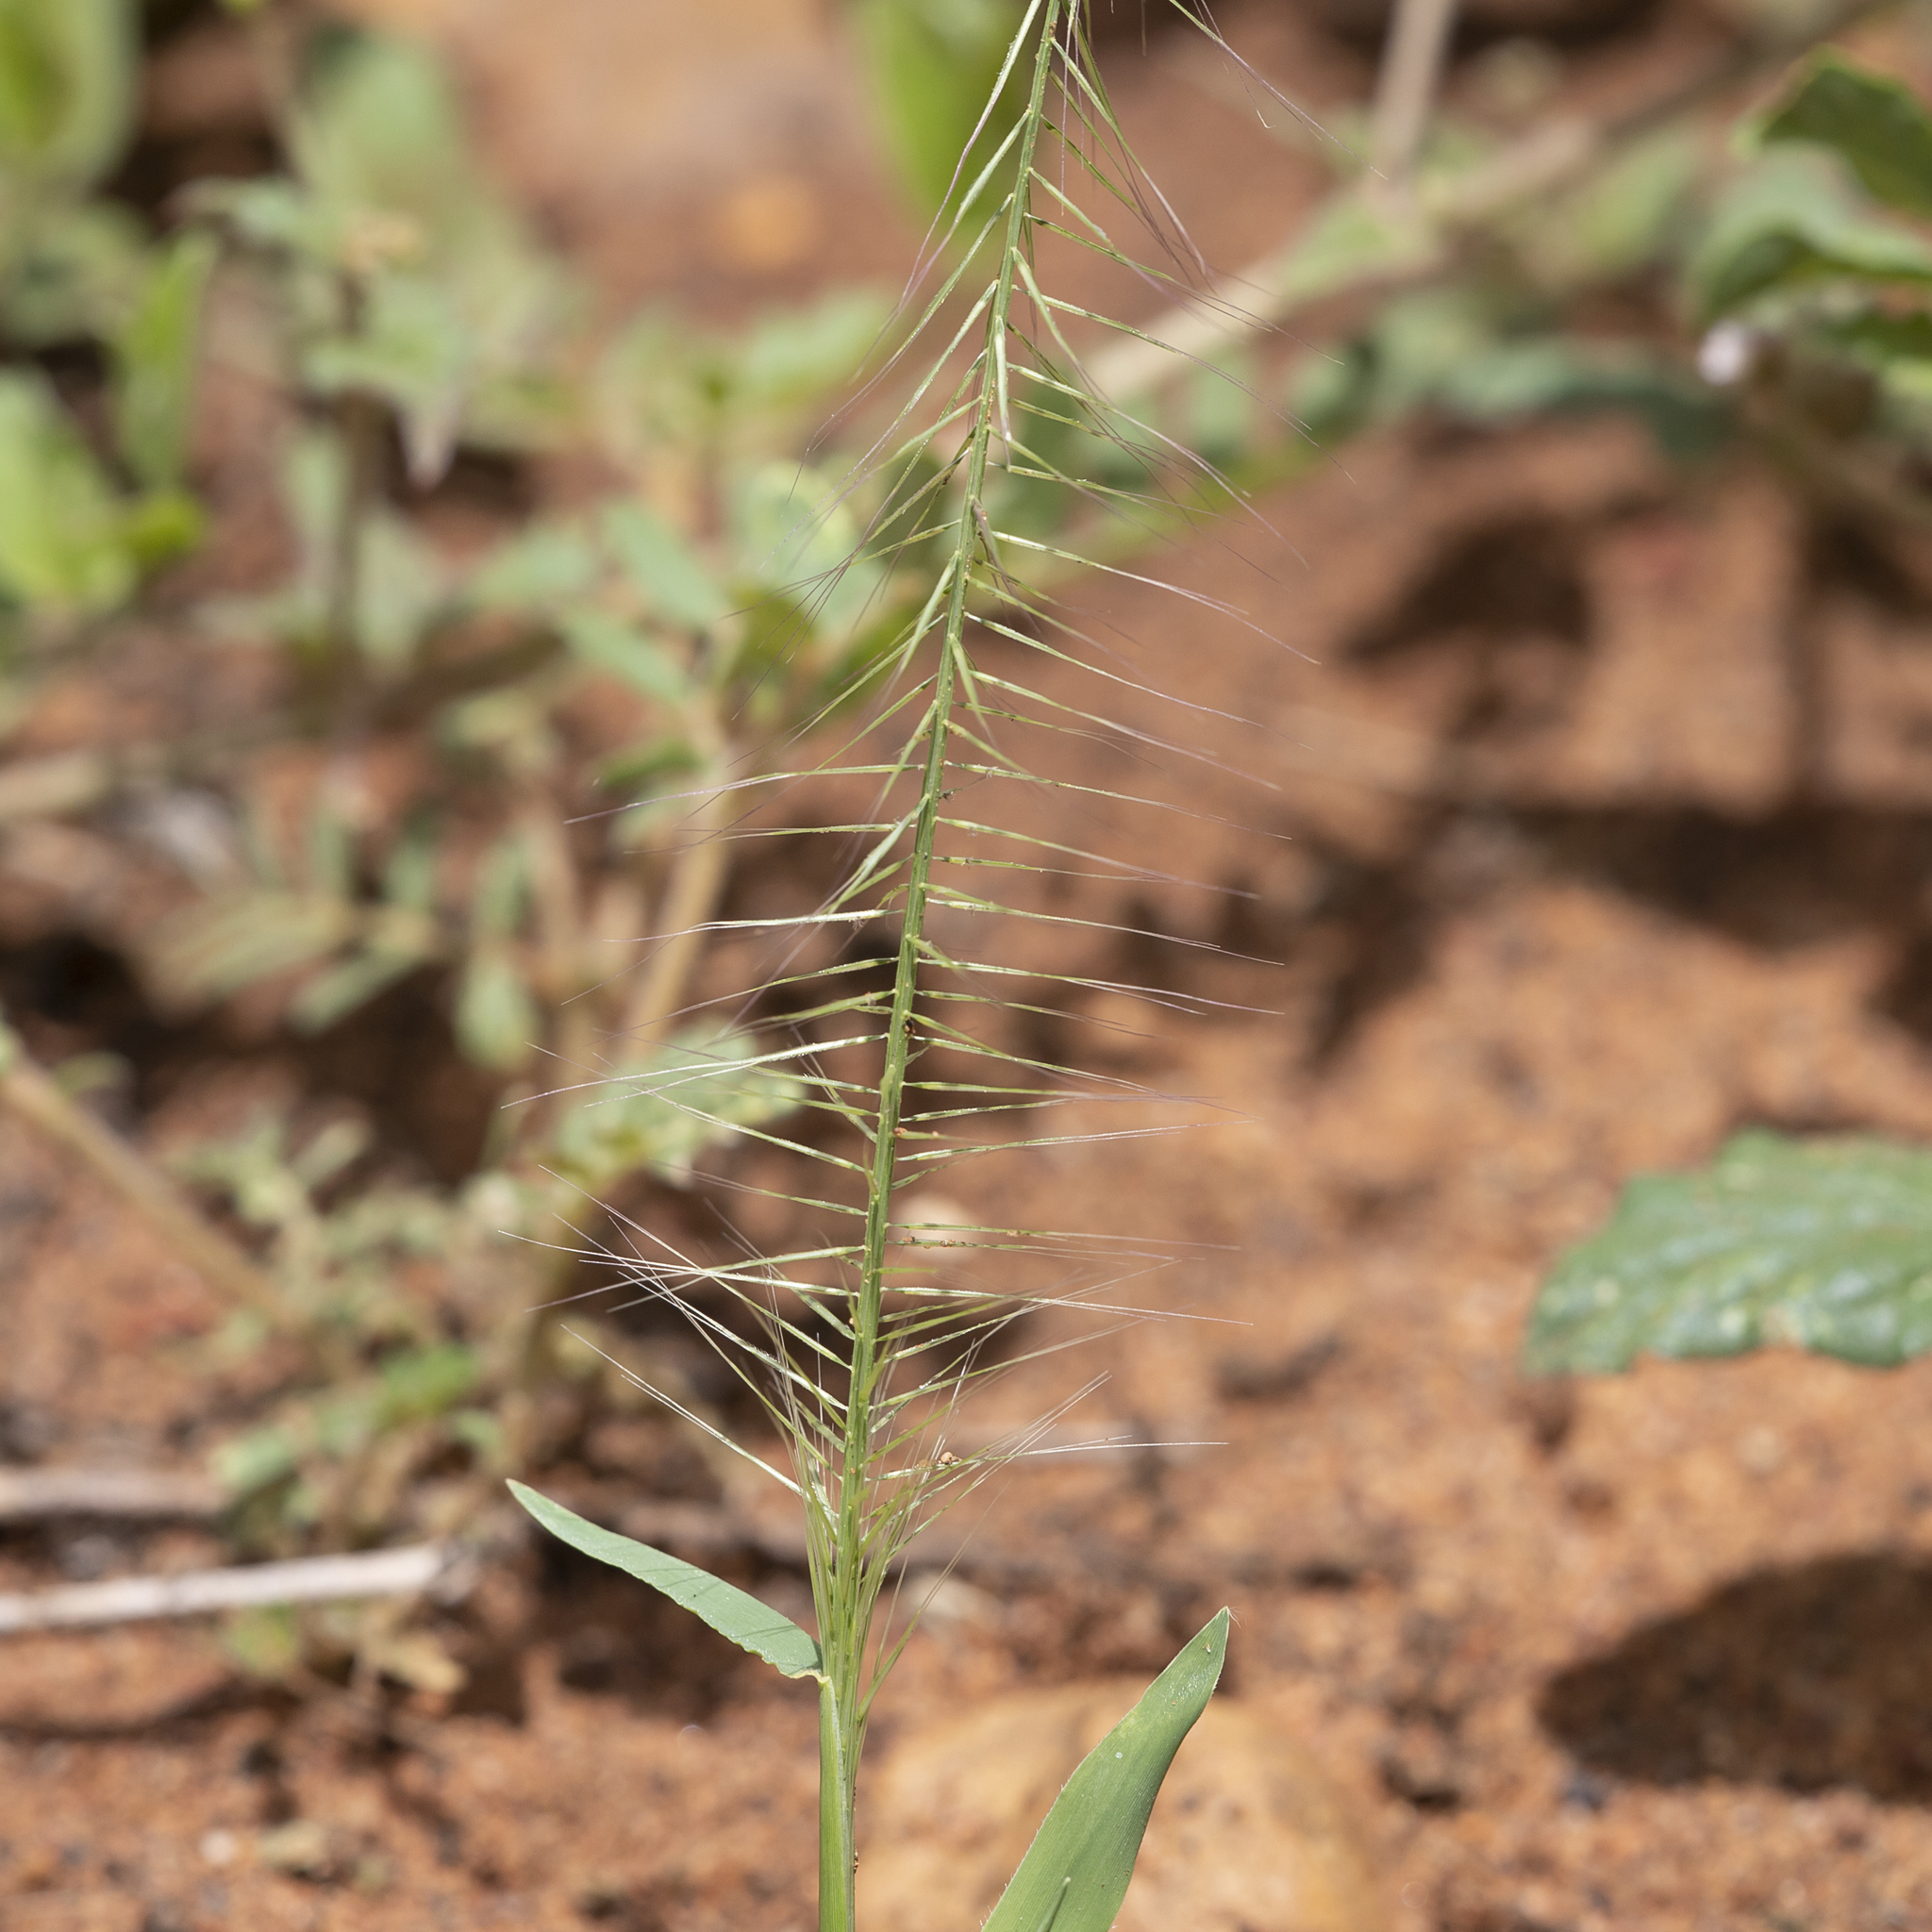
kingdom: Plantae
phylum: Tracheophyta
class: Liliopsida
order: Poales
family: Poaceae
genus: Perotis
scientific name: Perotis rara
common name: Comet grass
